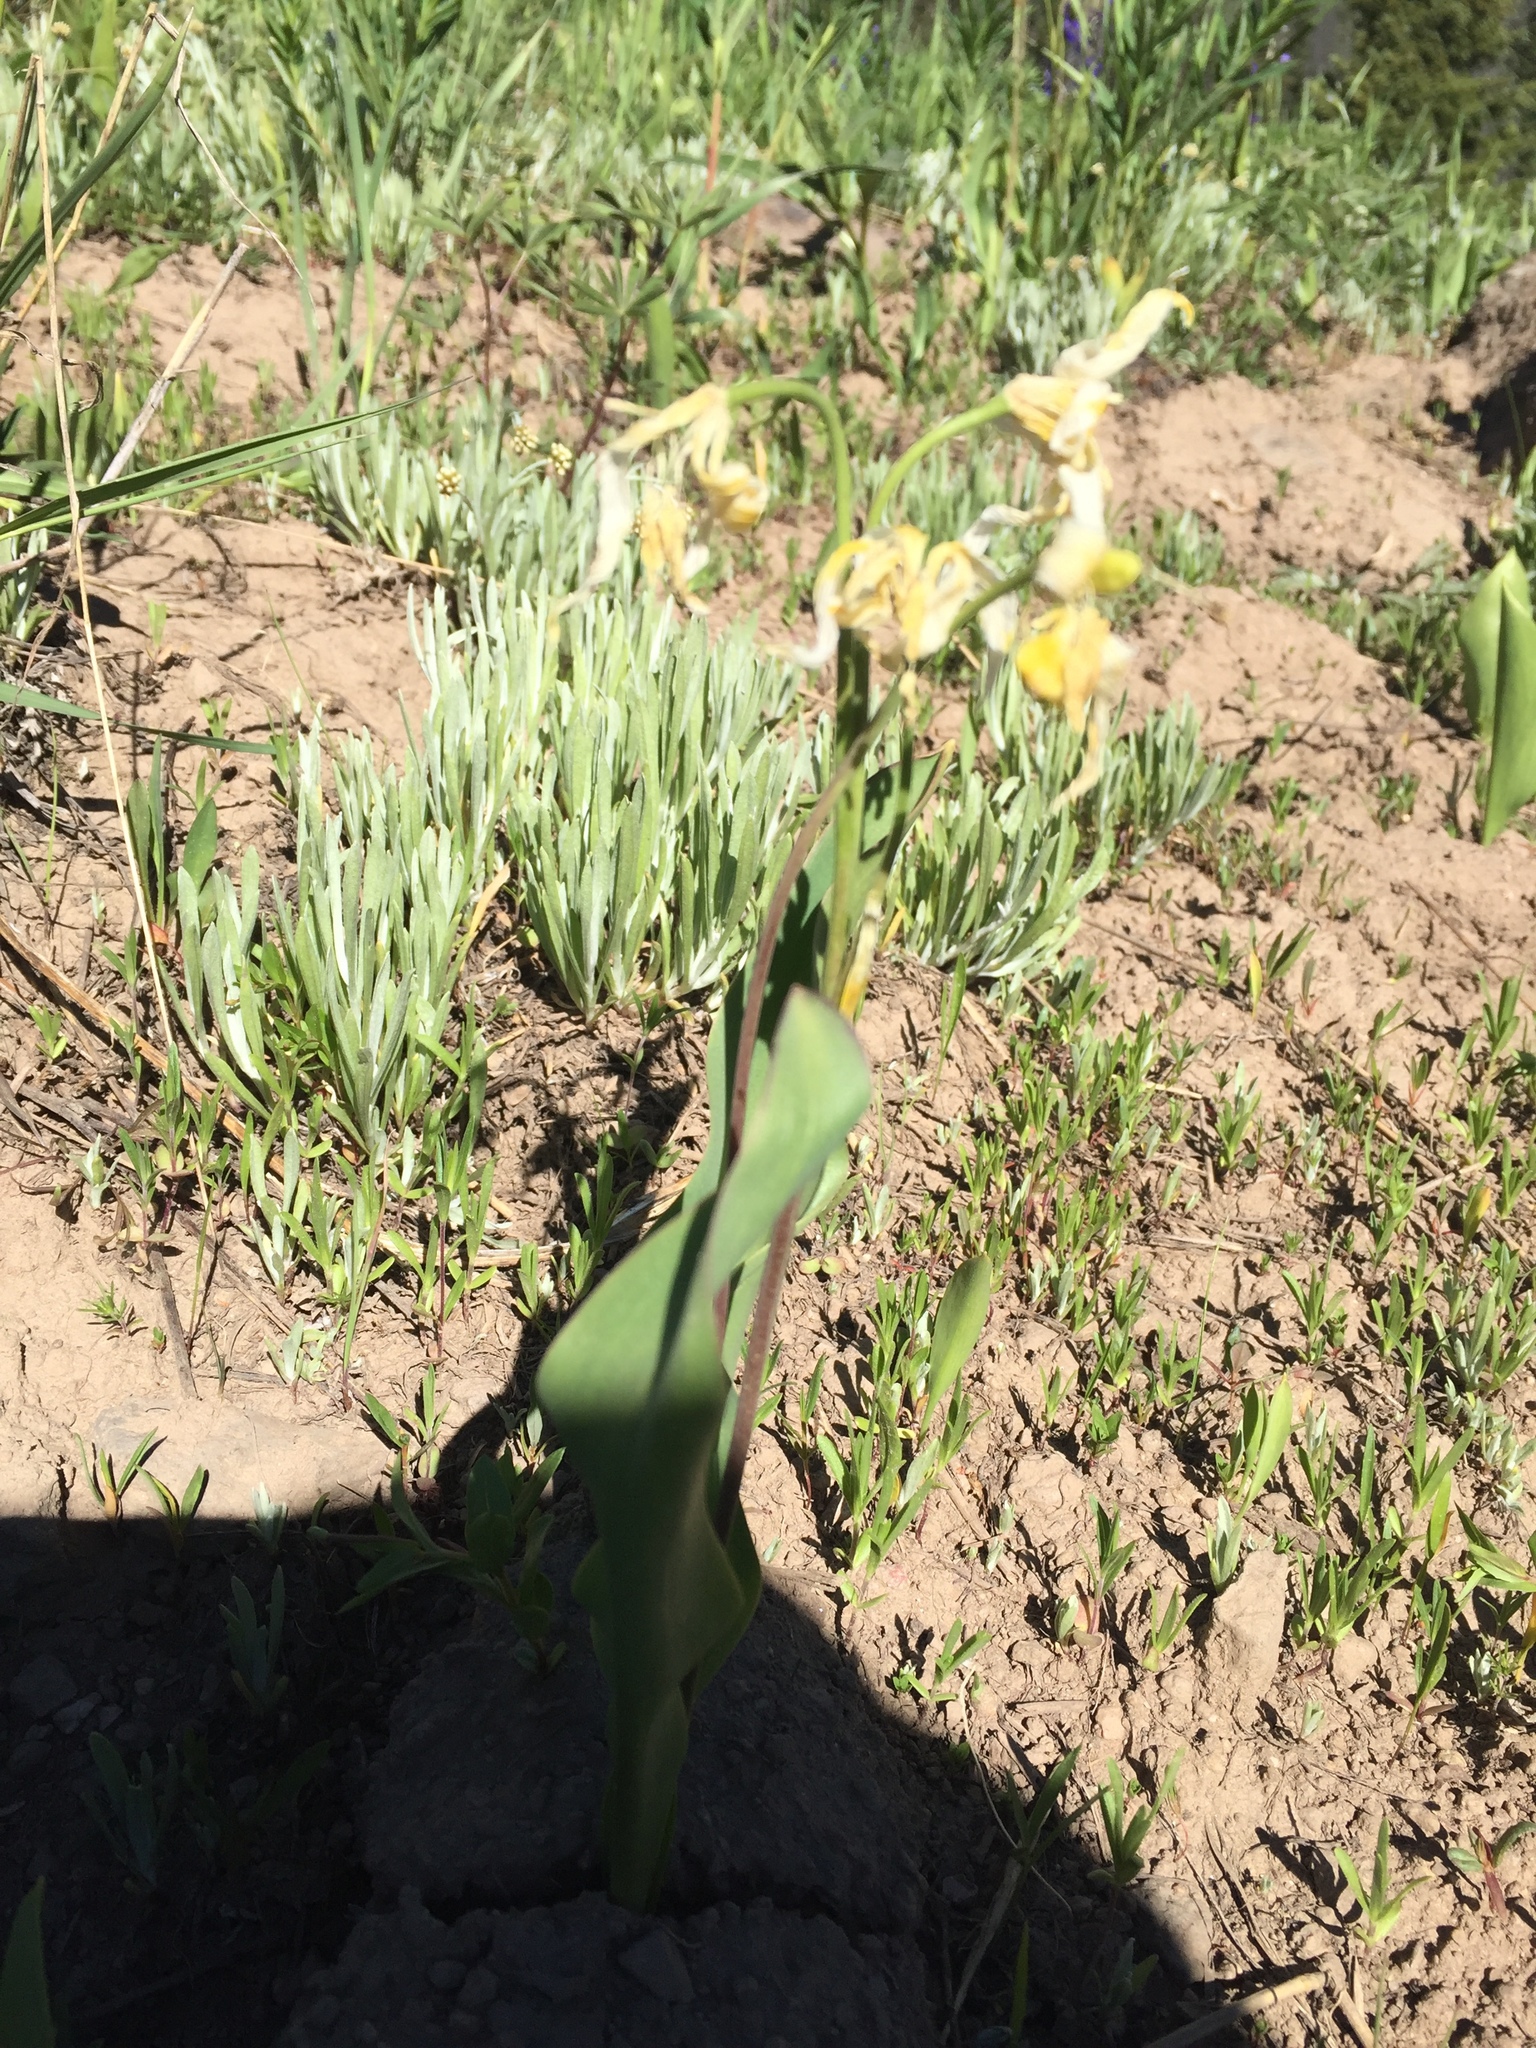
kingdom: Plantae
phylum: Tracheophyta
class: Liliopsida
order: Liliales
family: Liliaceae
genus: Erythronium
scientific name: Erythronium grandiflorum
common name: Avalanche-lily
